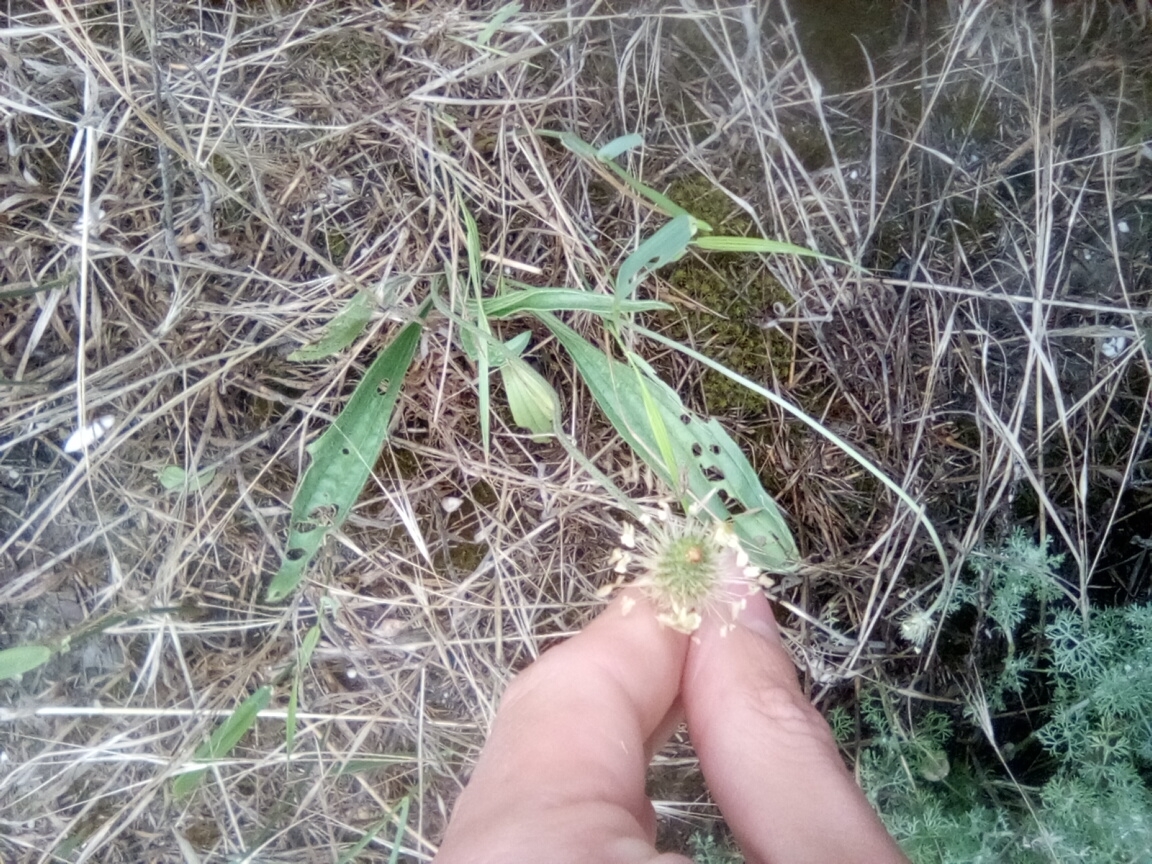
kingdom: Plantae
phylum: Tracheophyta
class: Magnoliopsida
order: Lamiales
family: Plantaginaceae
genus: Plantago
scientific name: Plantago lanceolata
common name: Ribwort plantain
